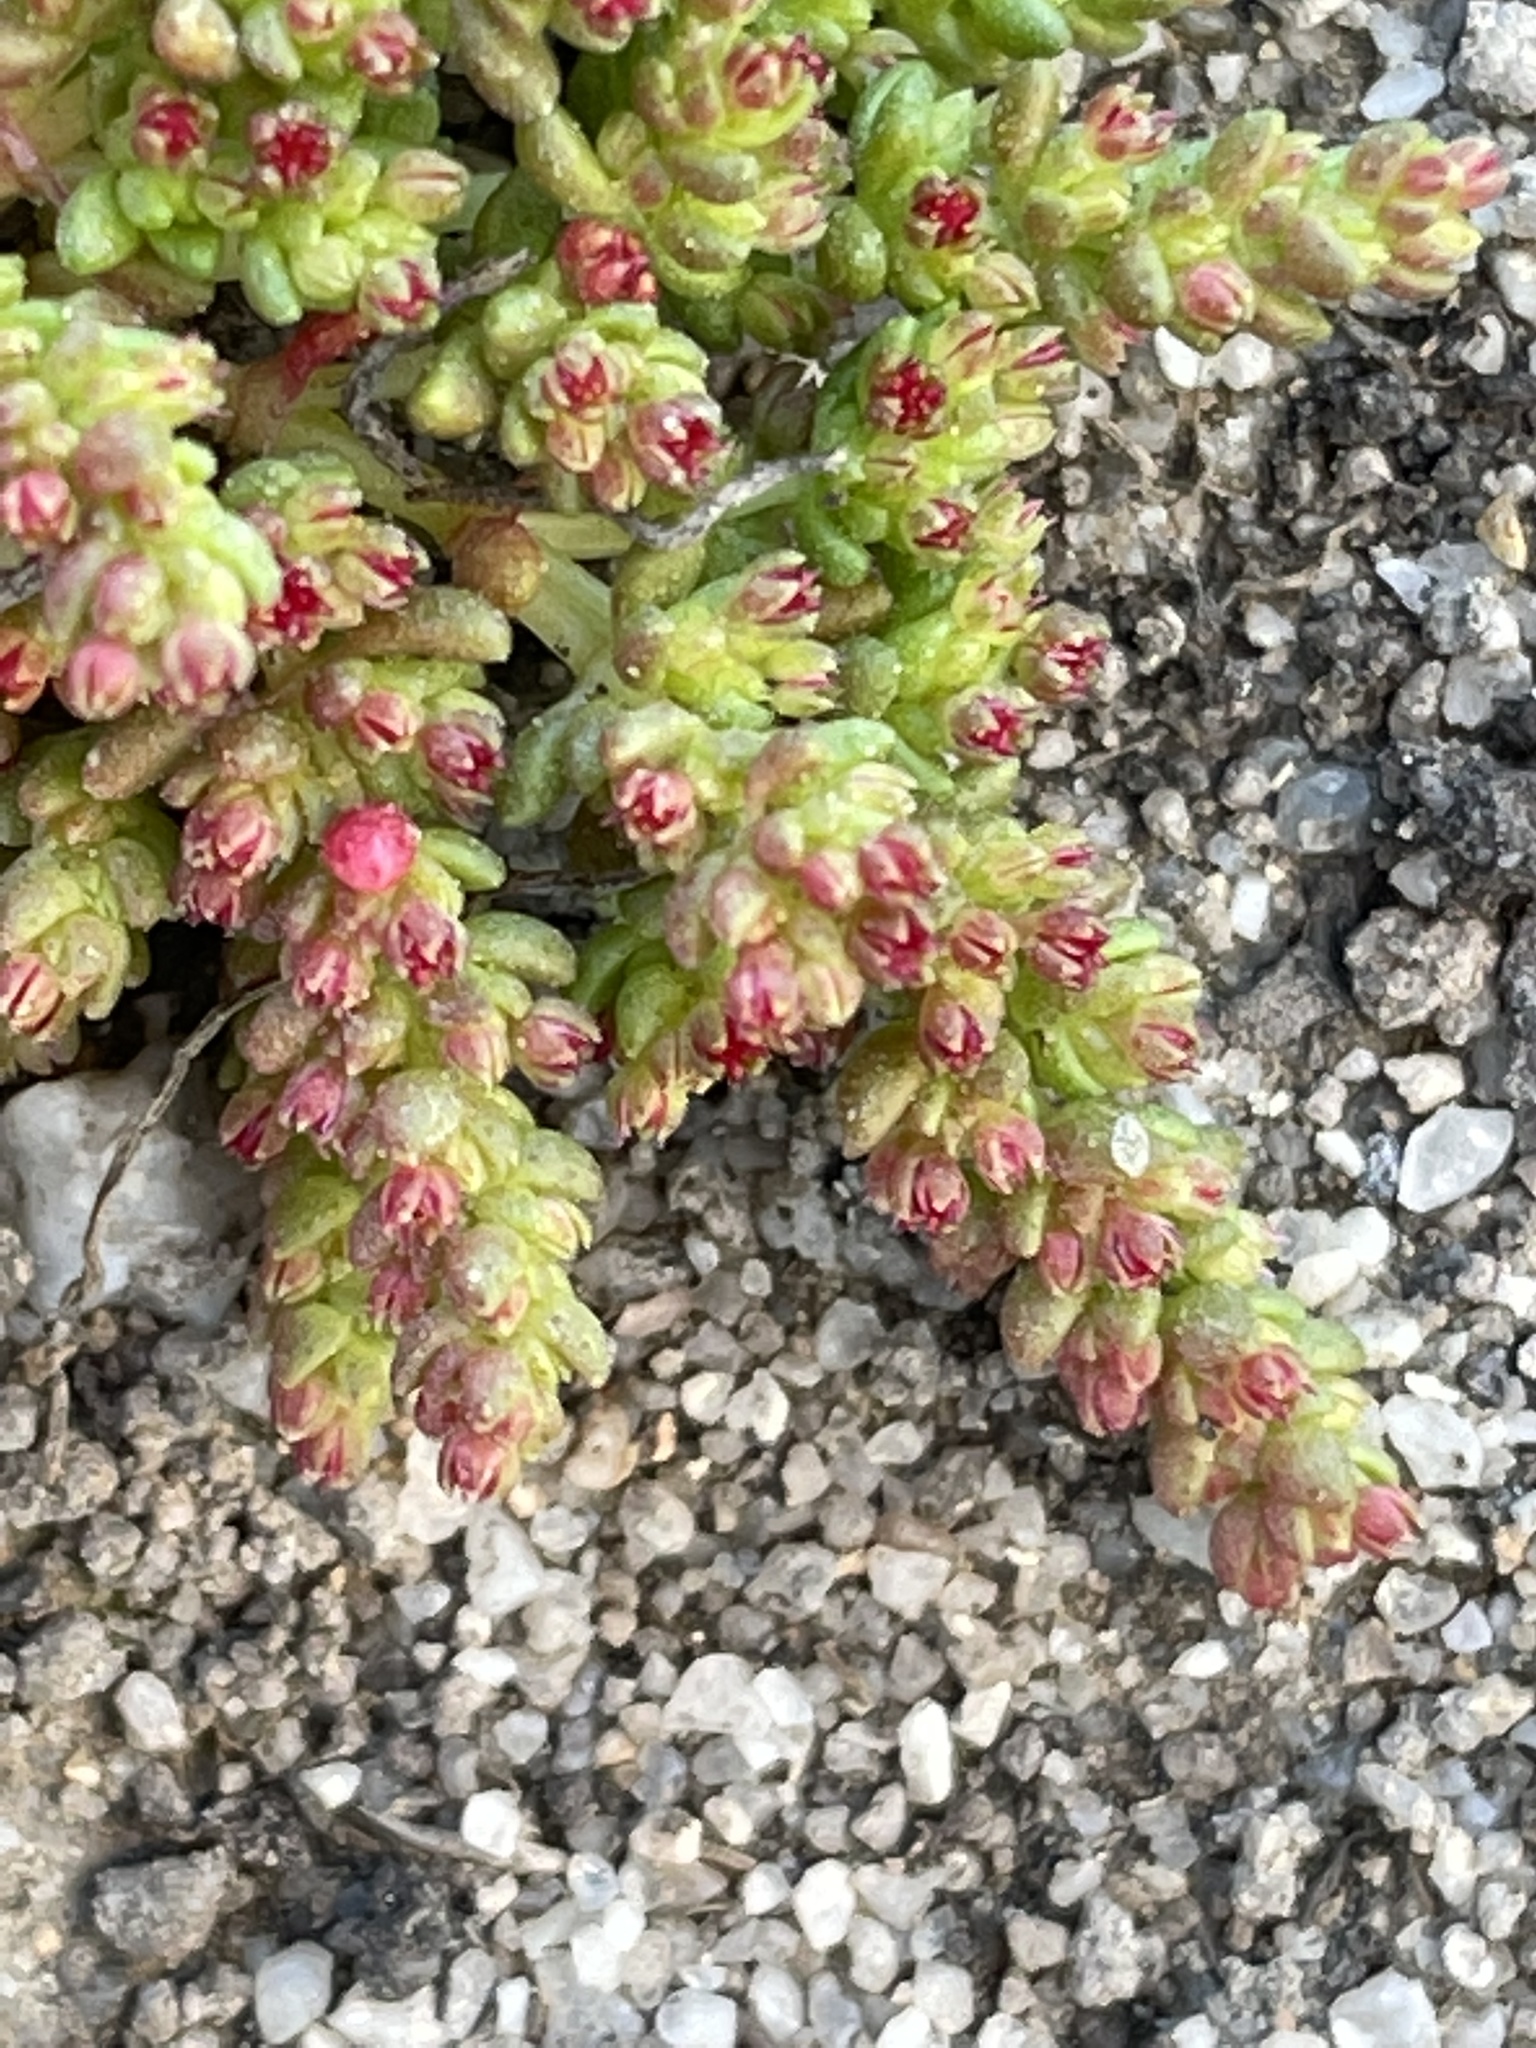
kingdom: Plantae
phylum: Tracheophyta
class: Magnoliopsida
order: Saxifragales
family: Crassulaceae
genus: Crassula
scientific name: Crassula connata
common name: Erect pygmyweed
